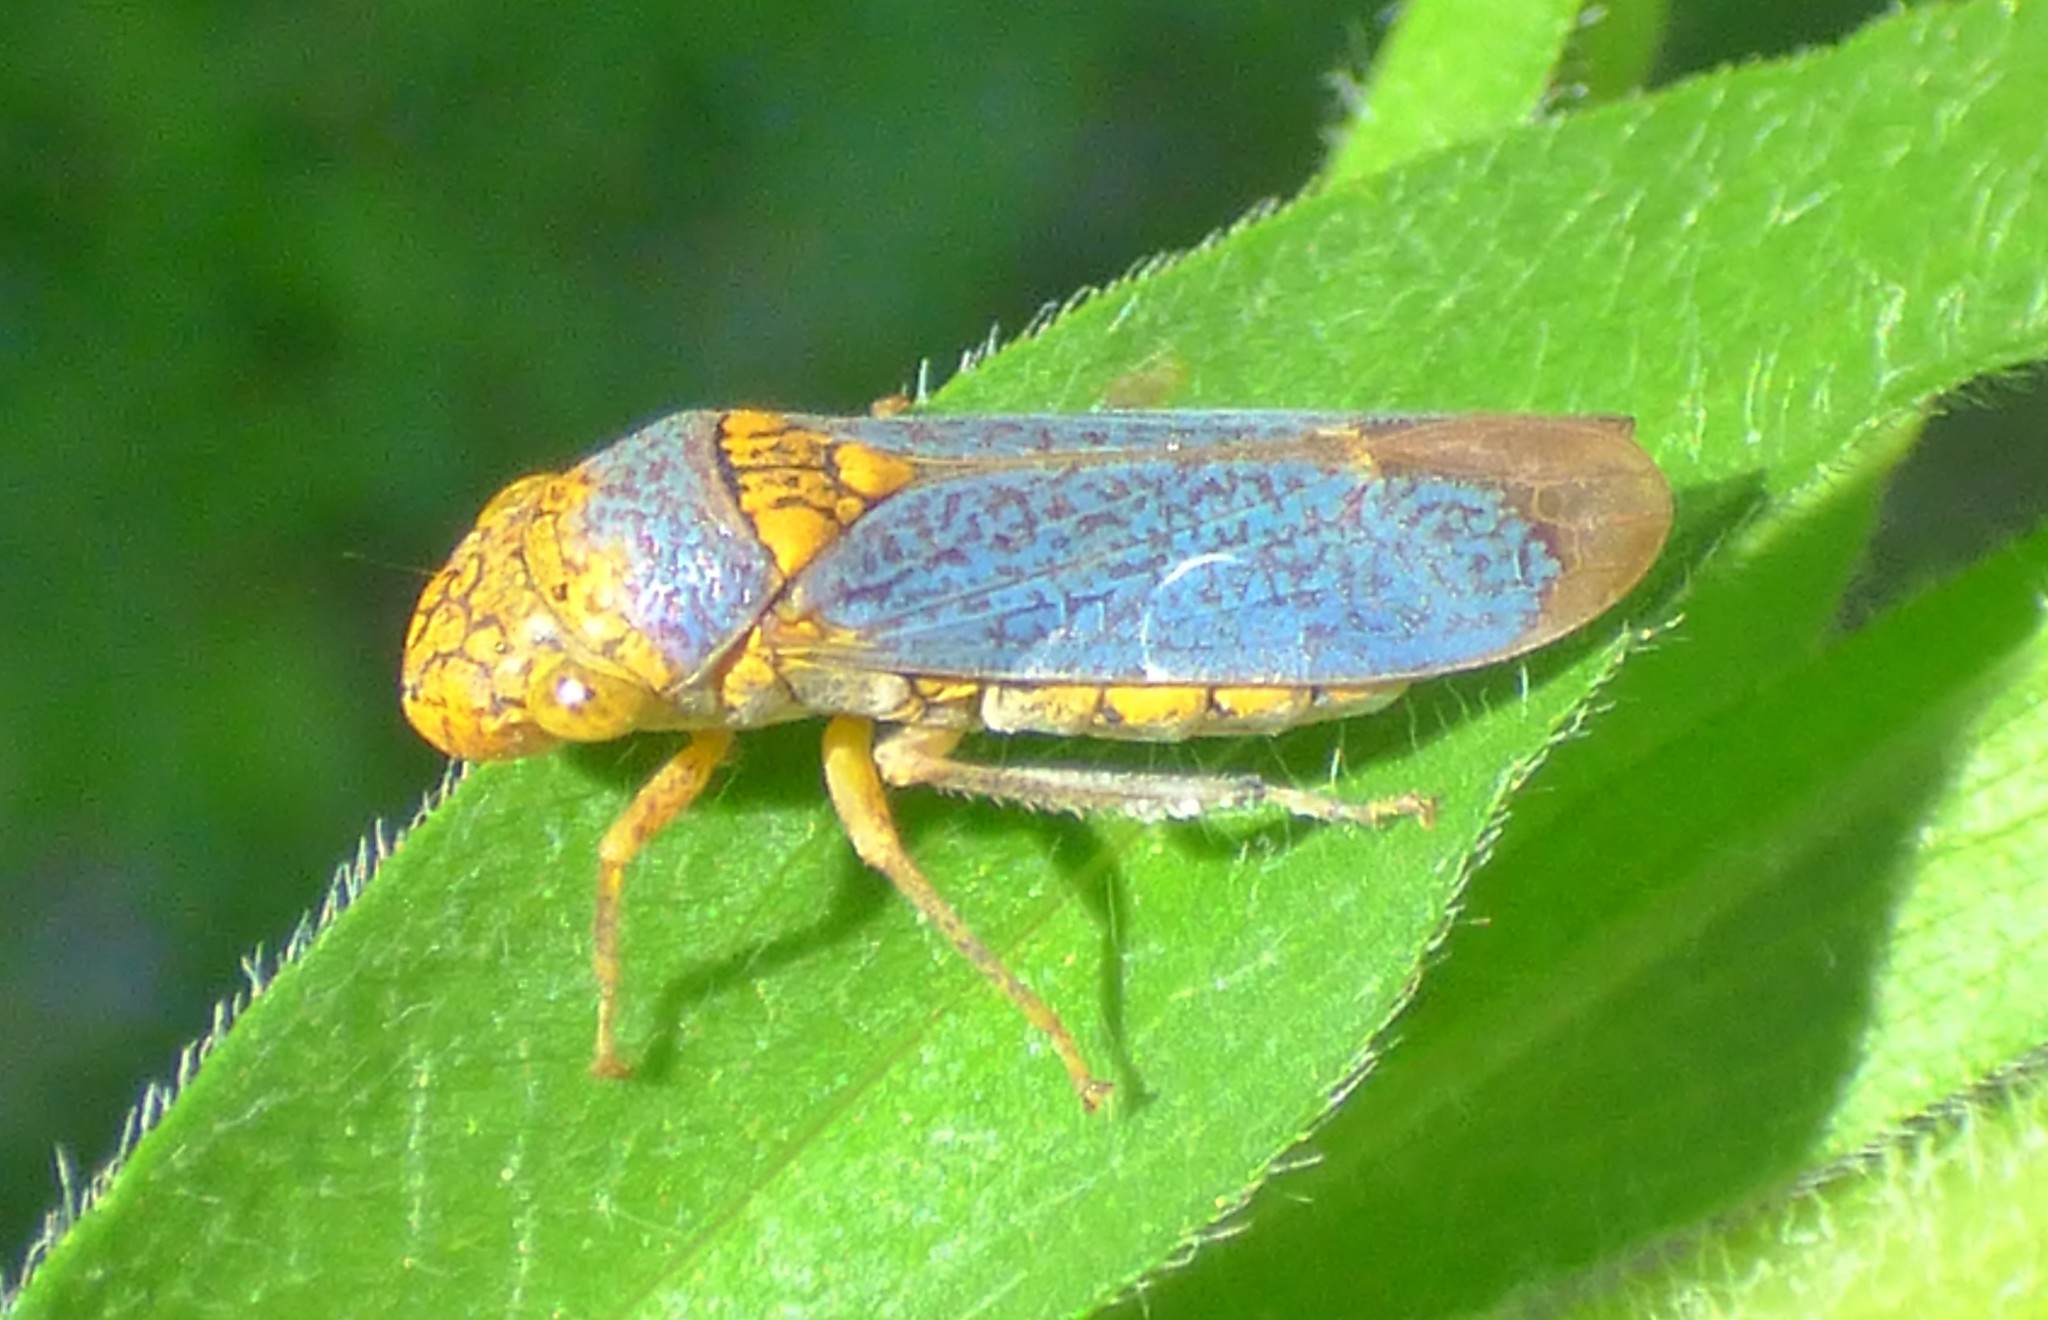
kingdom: Animalia
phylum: Arthropoda
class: Insecta
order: Hemiptera
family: Cicadellidae
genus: Oncometopia
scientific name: Oncometopia orbona
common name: Broad-headed sharpshooter
